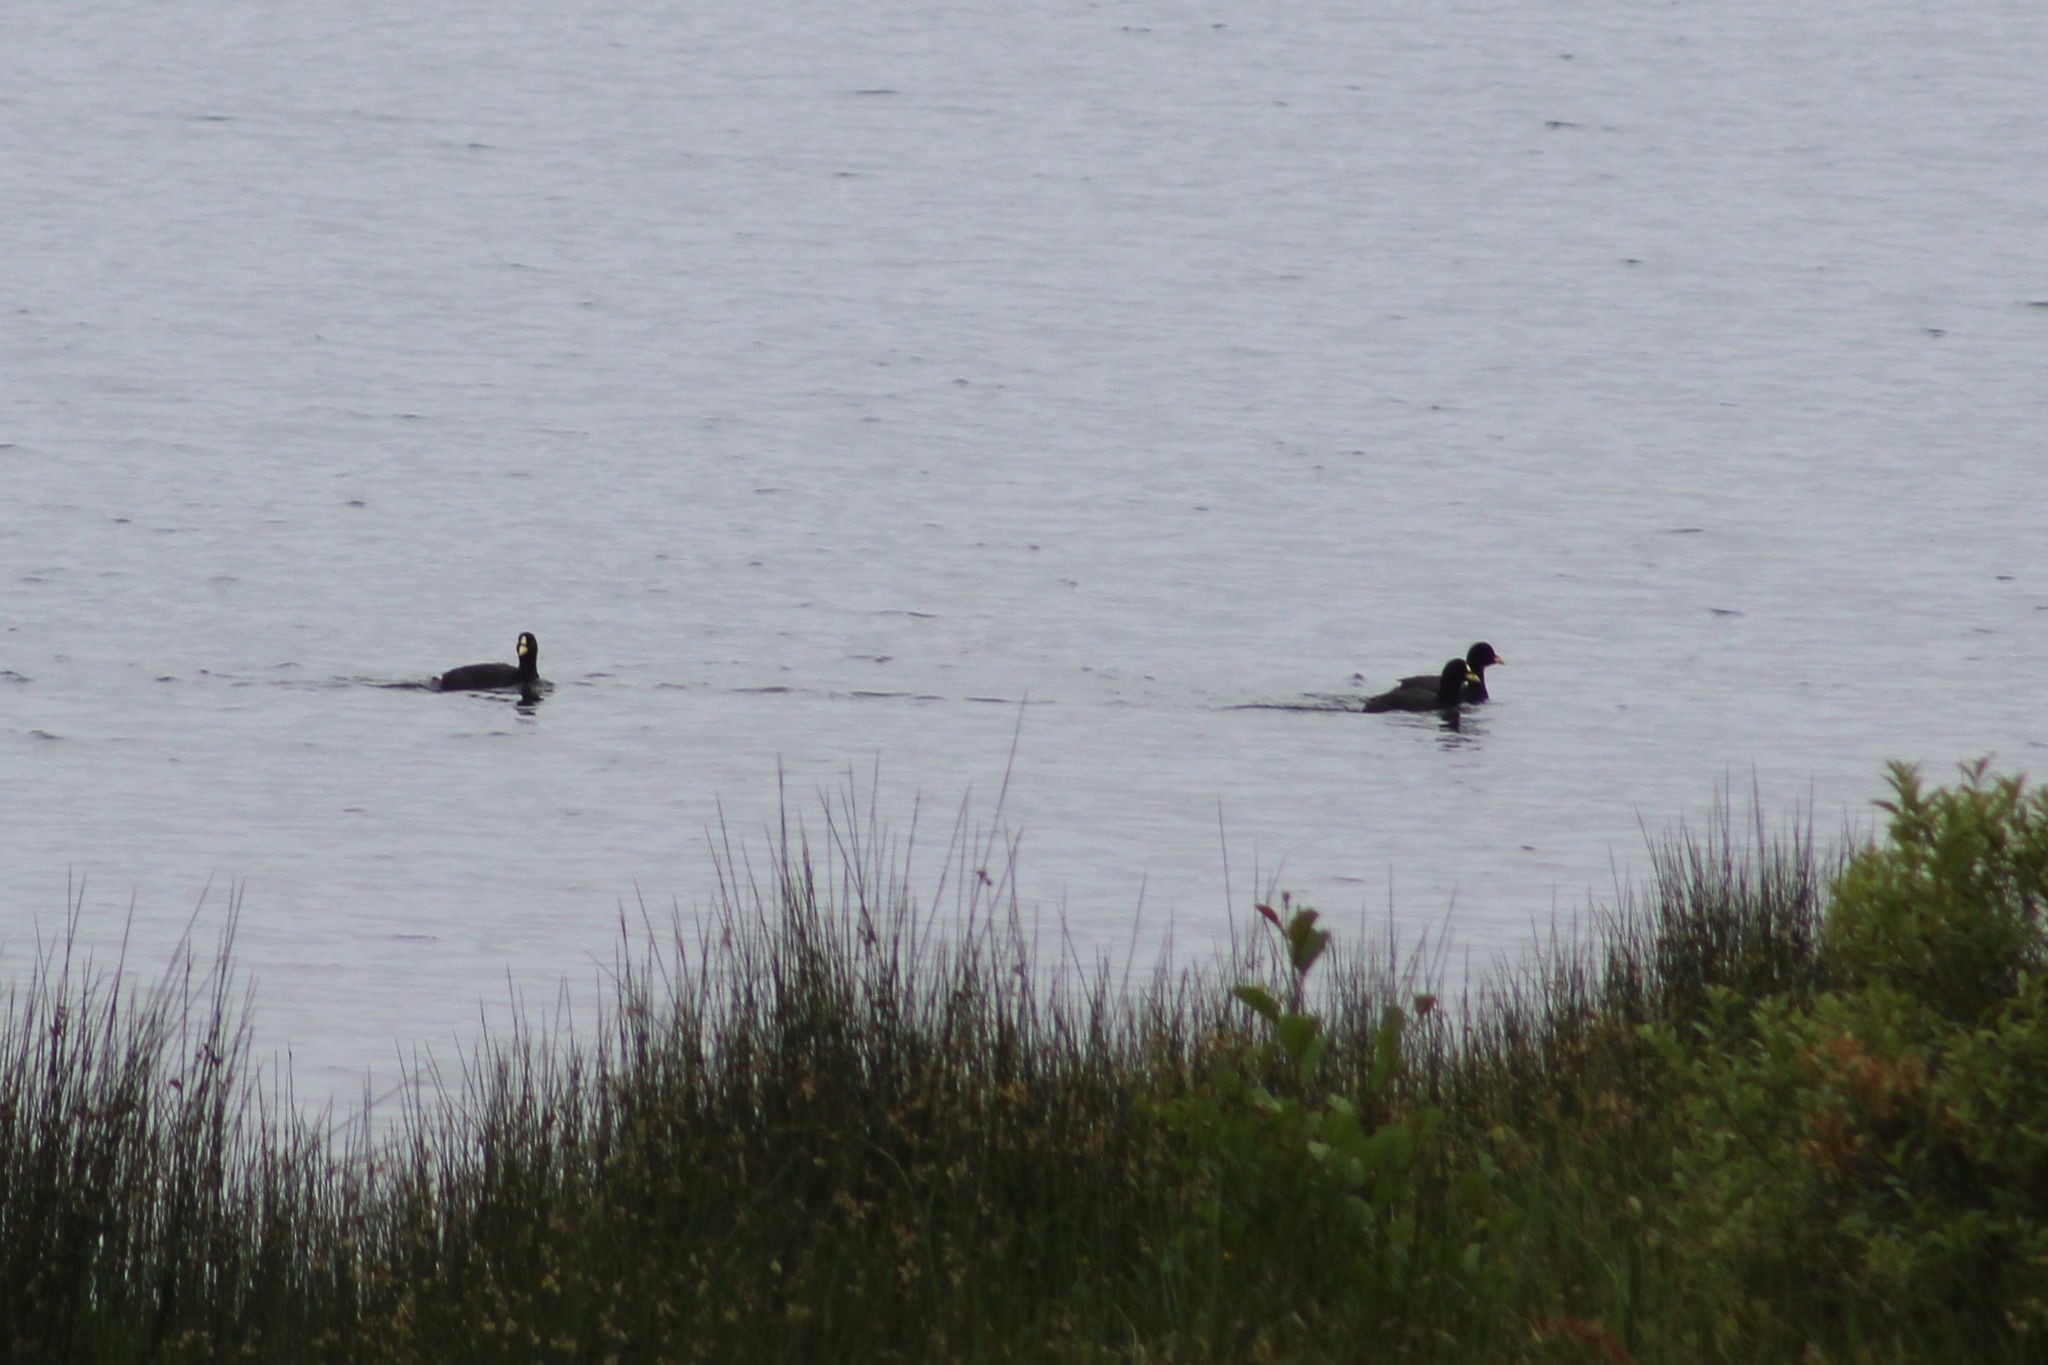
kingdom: Animalia
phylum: Chordata
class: Aves
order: Gruiformes
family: Rallidae
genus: Fulica
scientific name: Fulica armillata
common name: Red-gartered coot
